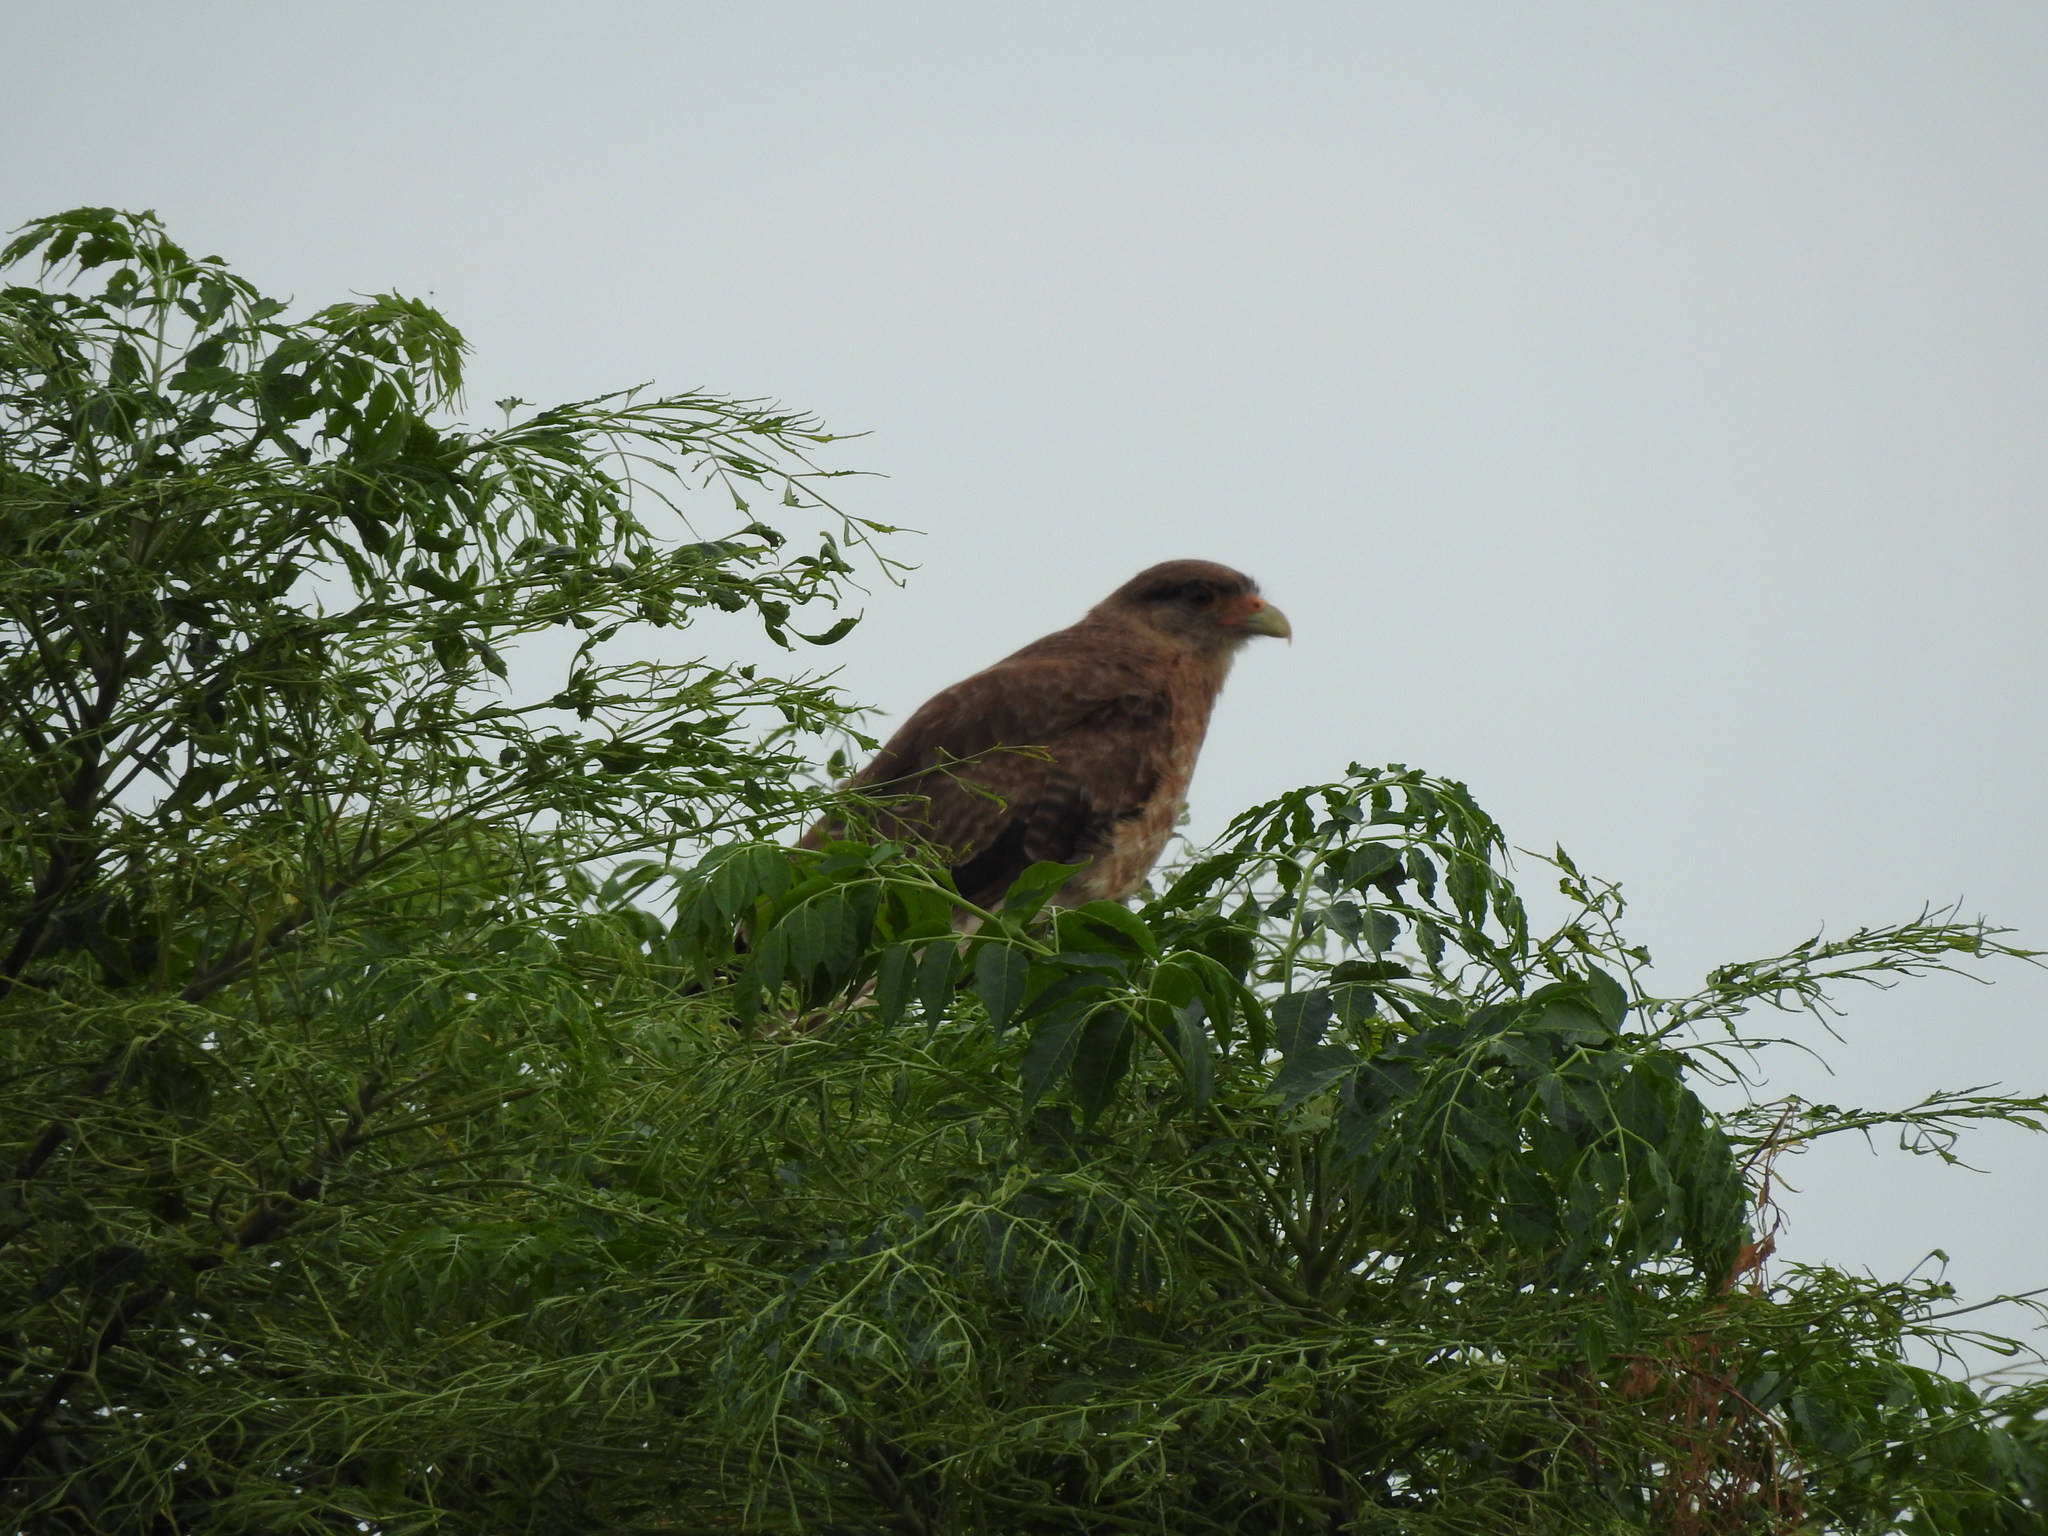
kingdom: Animalia
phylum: Chordata
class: Aves
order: Falconiformes
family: Falconidae
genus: Daptrius
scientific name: Daptrius
